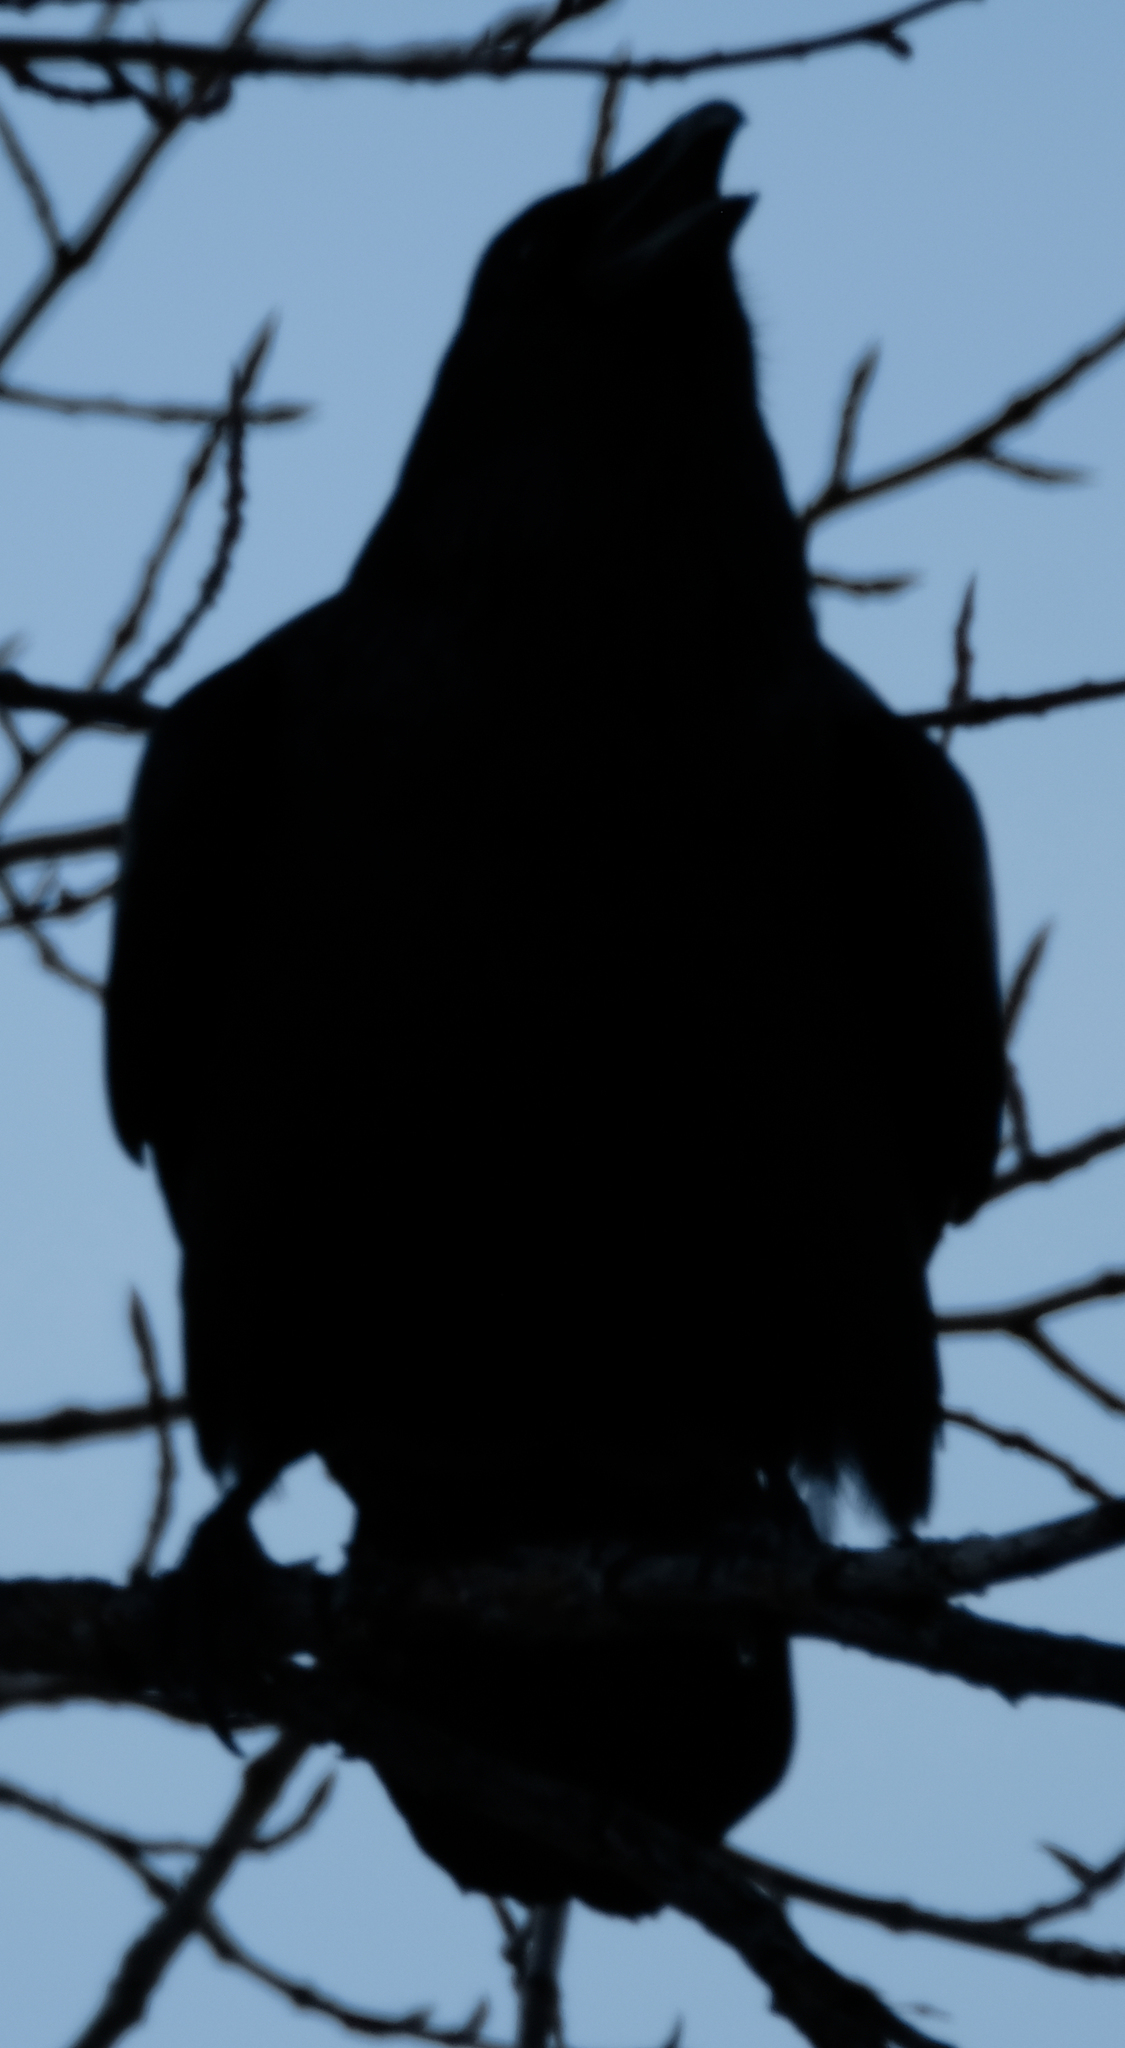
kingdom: Animalia
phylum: Chordata
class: Aves
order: Passeriformes
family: Corvidae
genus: Corvus
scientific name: Corvus corax
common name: Common raven
